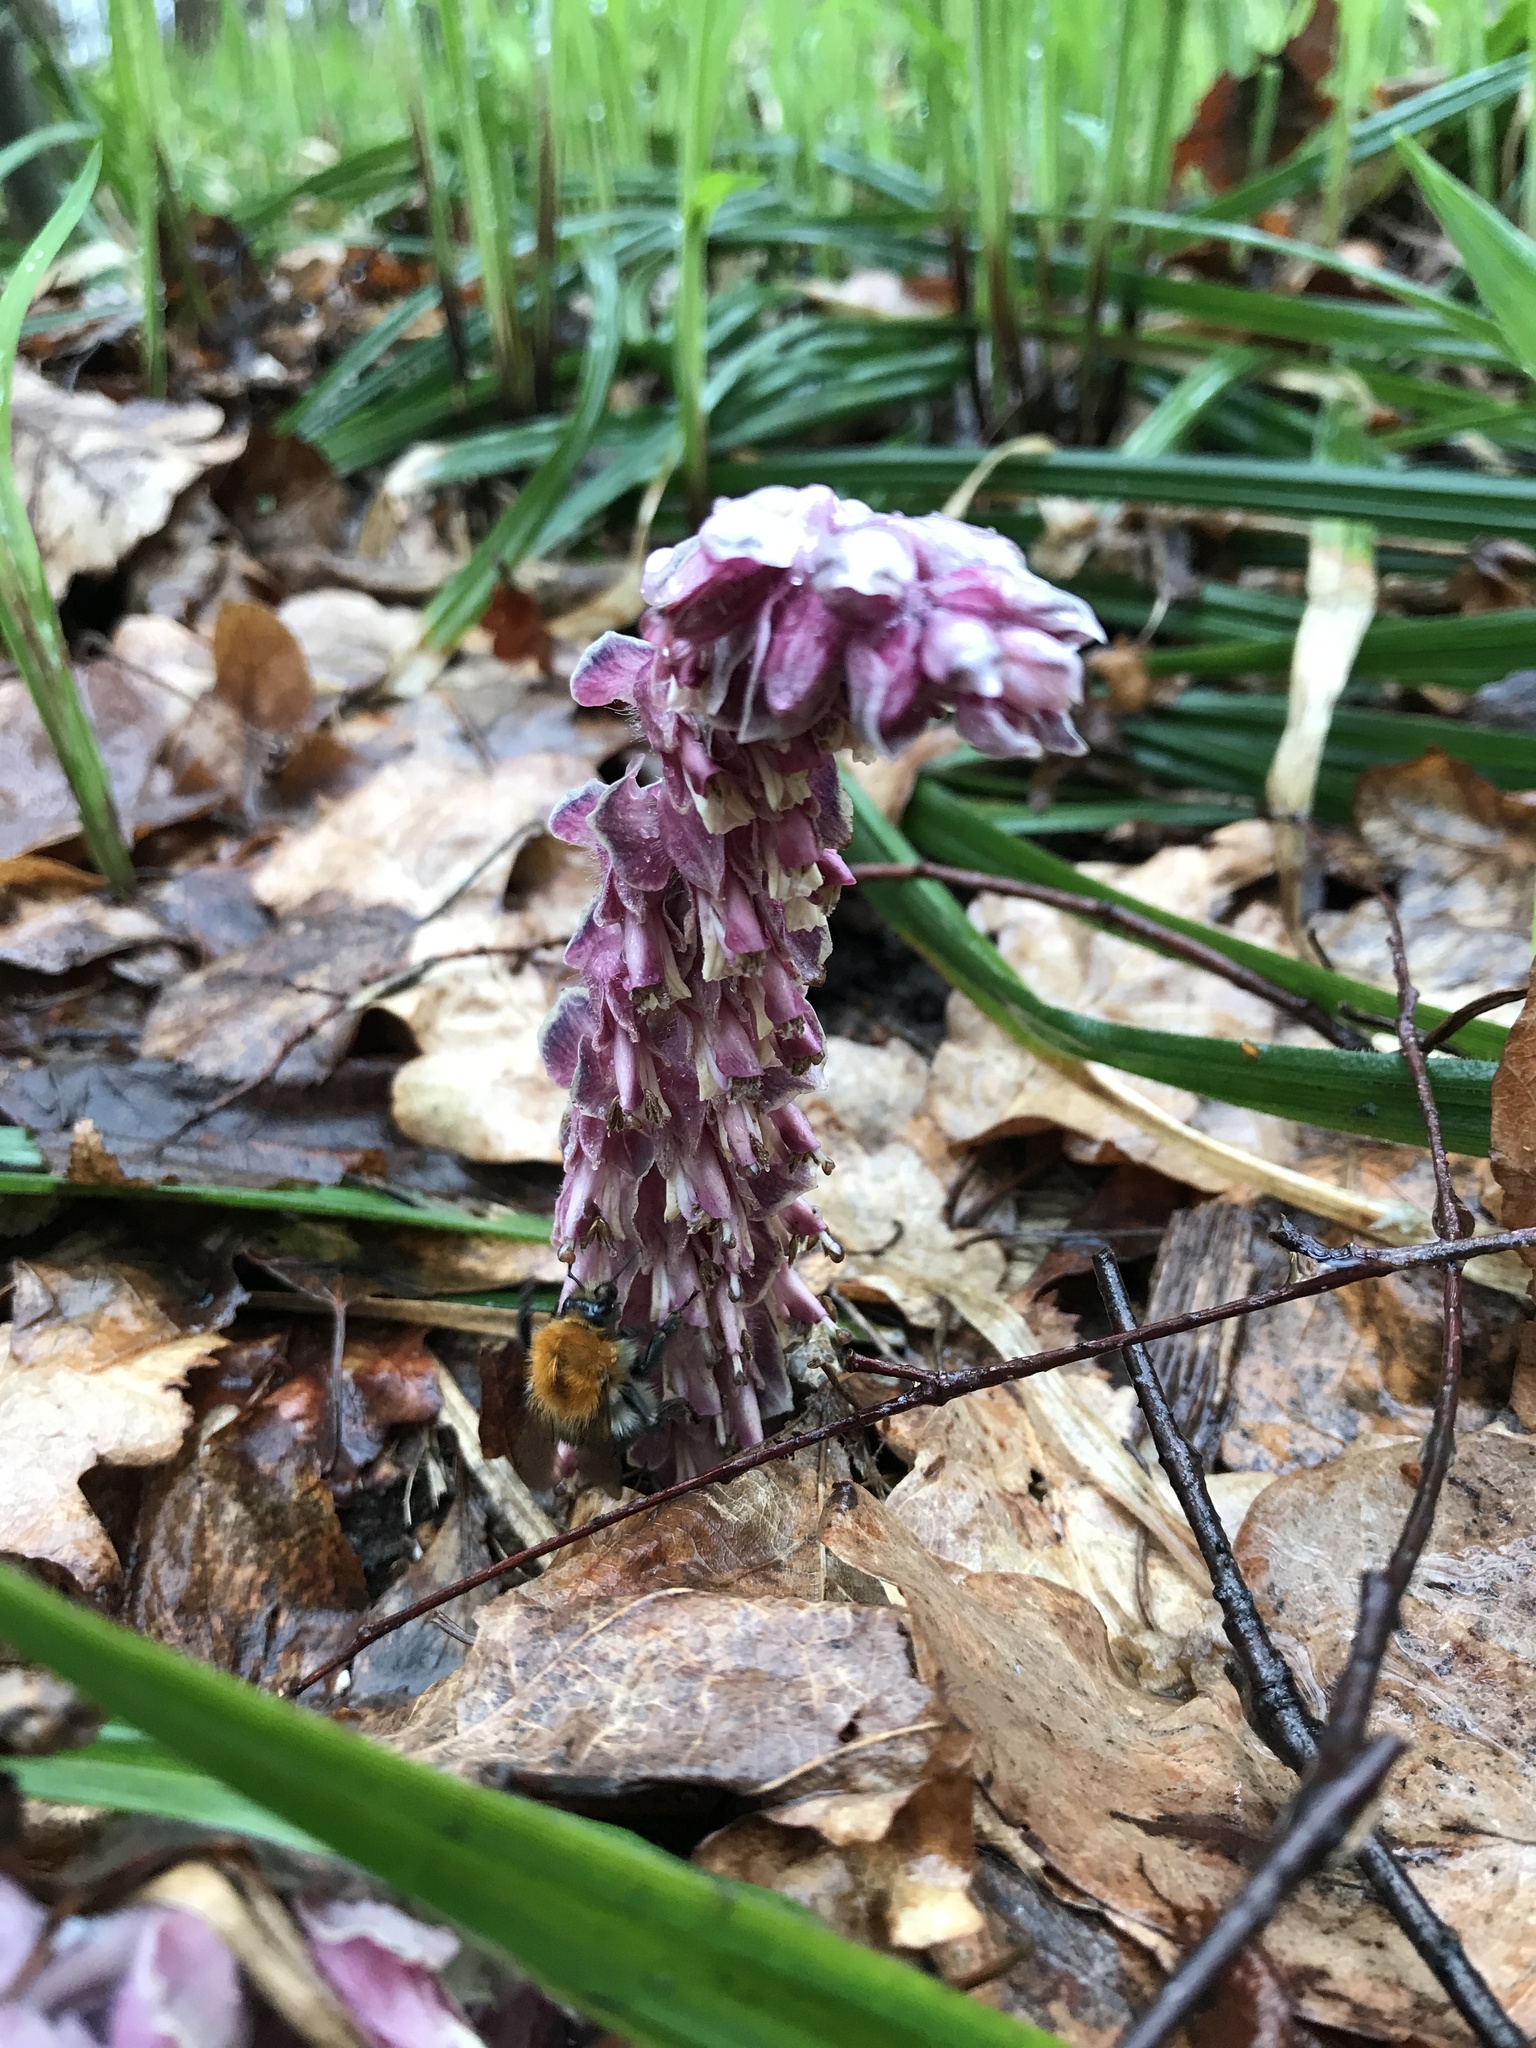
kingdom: Animalia
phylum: Arthropoda
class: Insecta
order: Hymenoptera
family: Apidae
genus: Bombus
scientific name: Bombus pascuorum
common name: Common carder bee
